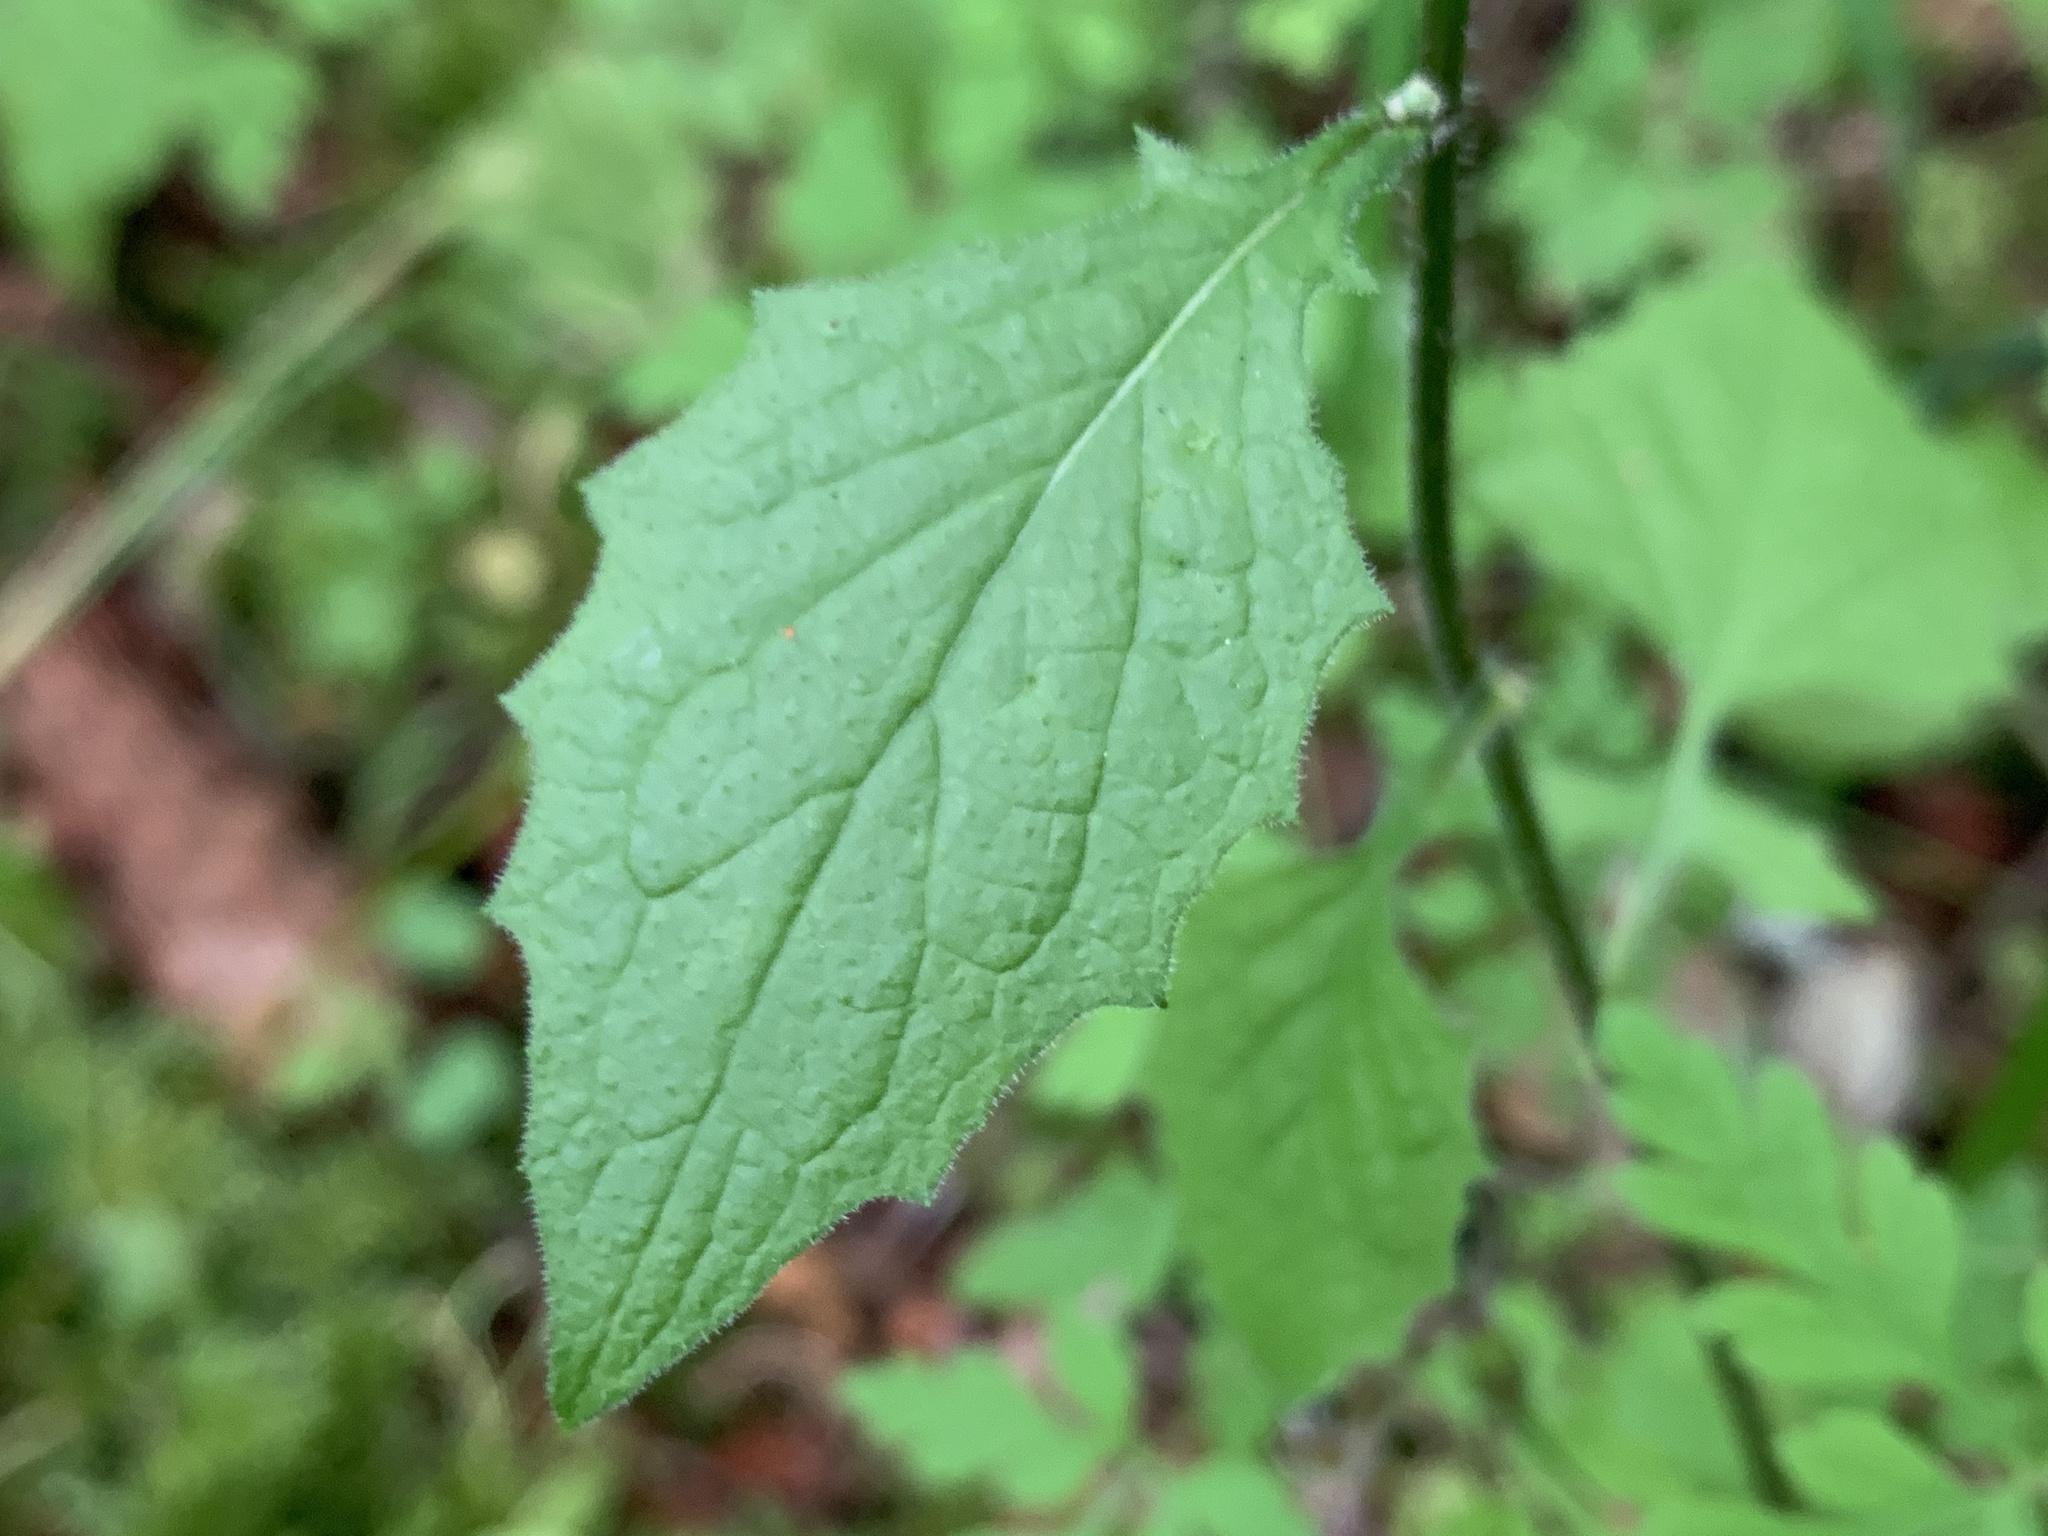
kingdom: Plantae
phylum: Tracheophyta
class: Magnoliopsida
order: Asterales
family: Asteraceae
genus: Lapsana
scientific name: Lapsana communis
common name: Nipplewort
